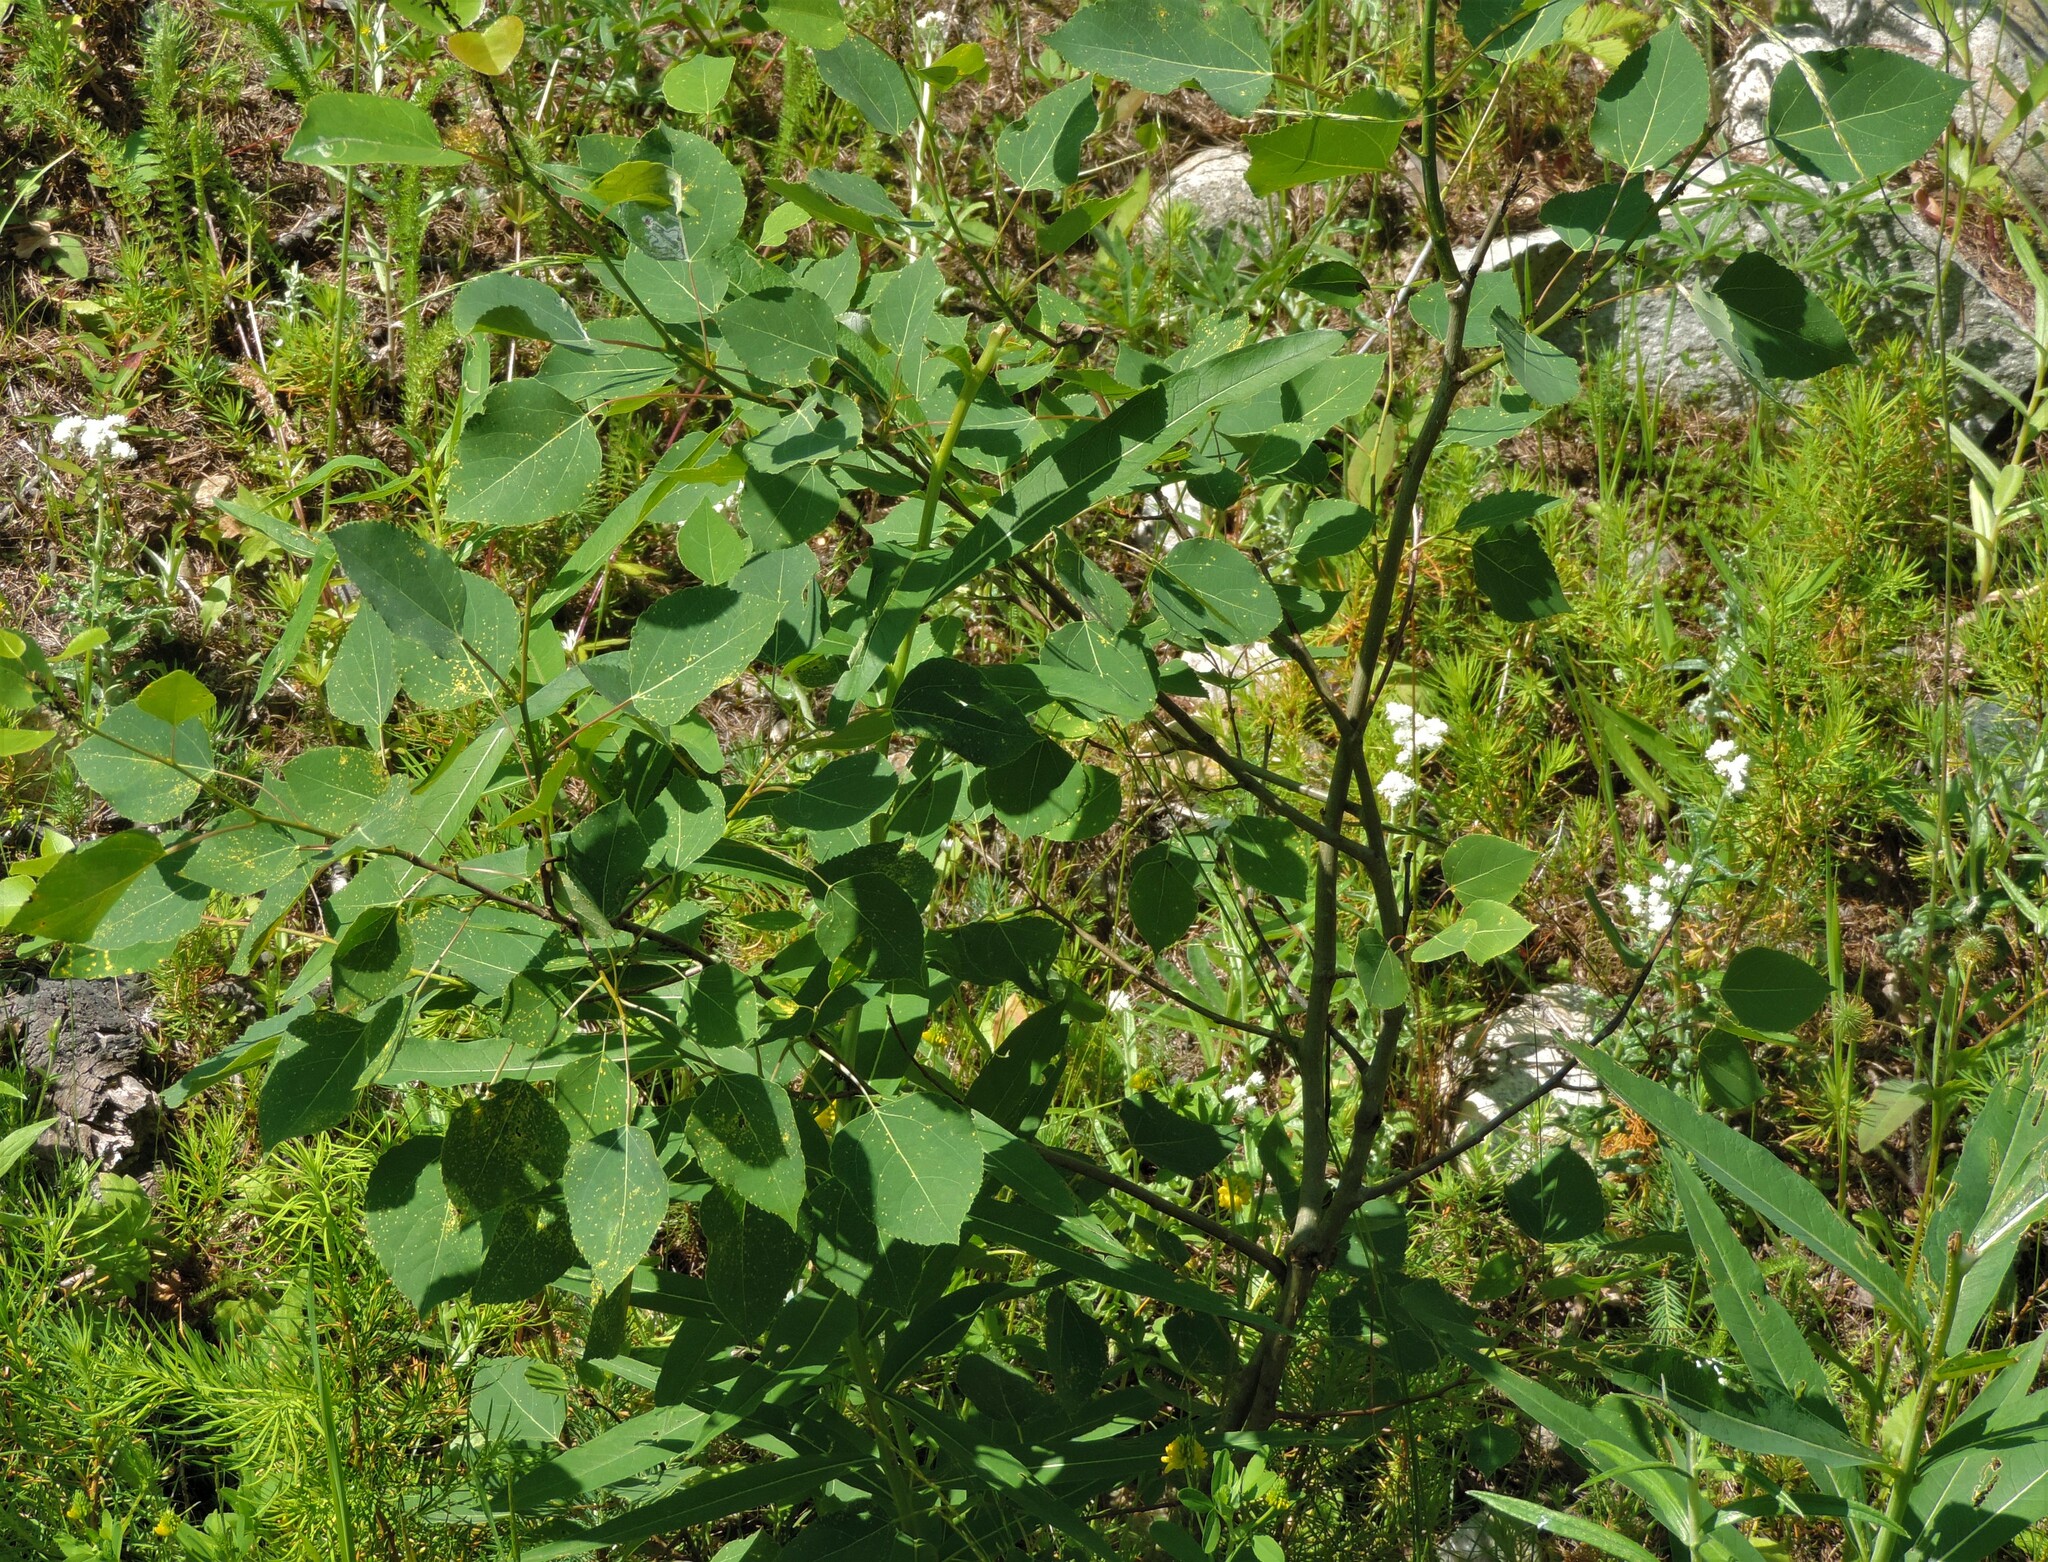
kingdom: Plantae
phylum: Tracheophyta
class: Magnoliopsida
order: Malpighiales
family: Salicaceae
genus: Populus
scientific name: Populus tremuloides
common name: Quaking aspen
